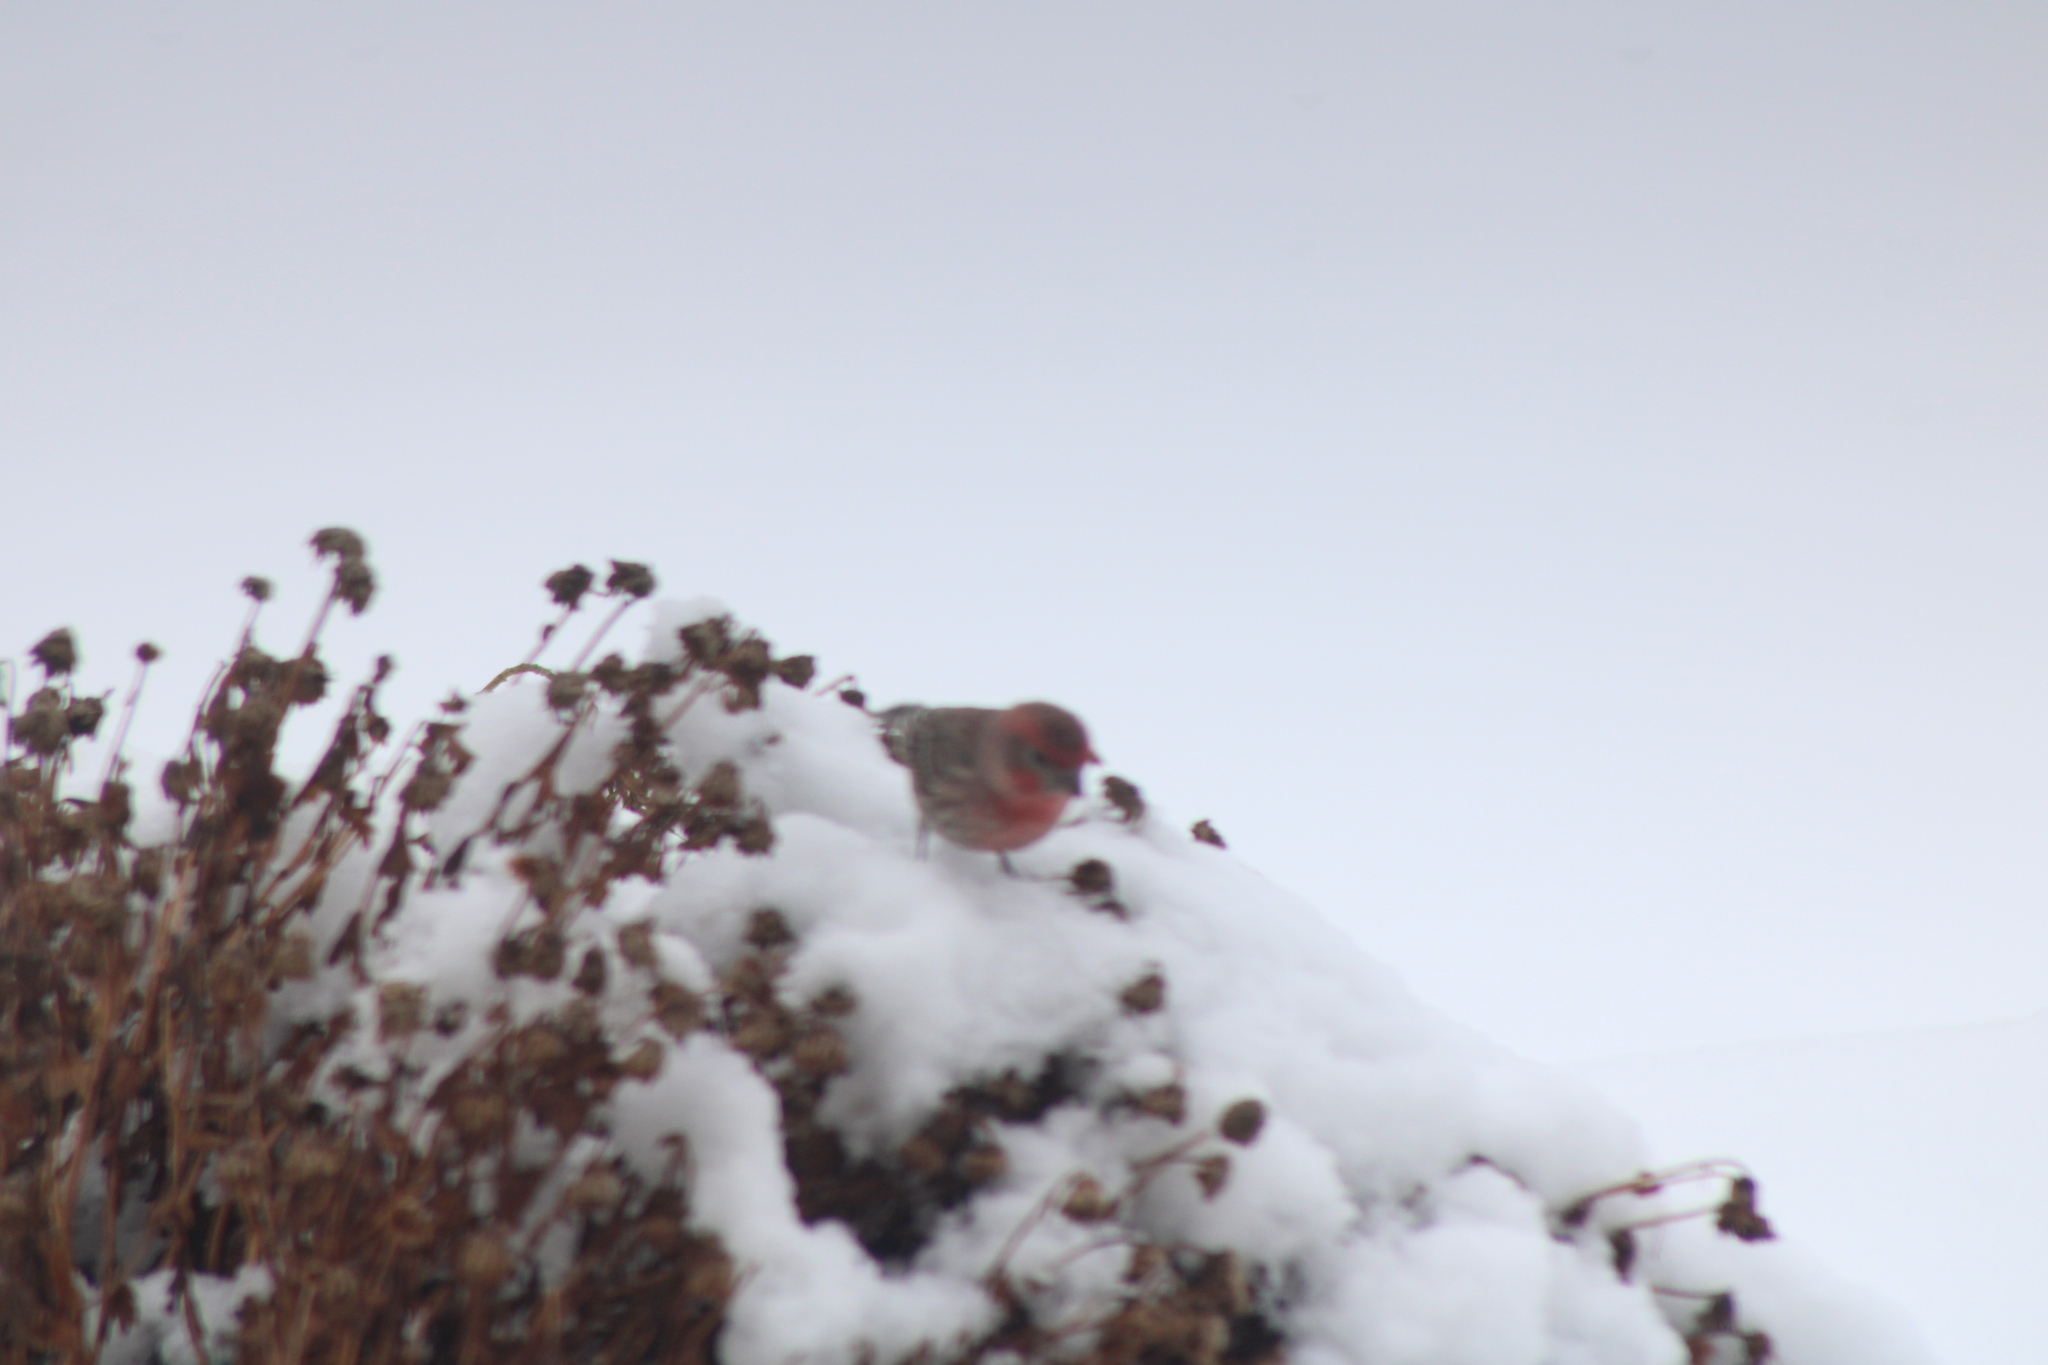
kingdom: Animalia
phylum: Chordata
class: Aves
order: Passeriformes
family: Fringillidae
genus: Haemorhous
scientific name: Haemorhous mexicanus
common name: House finch
